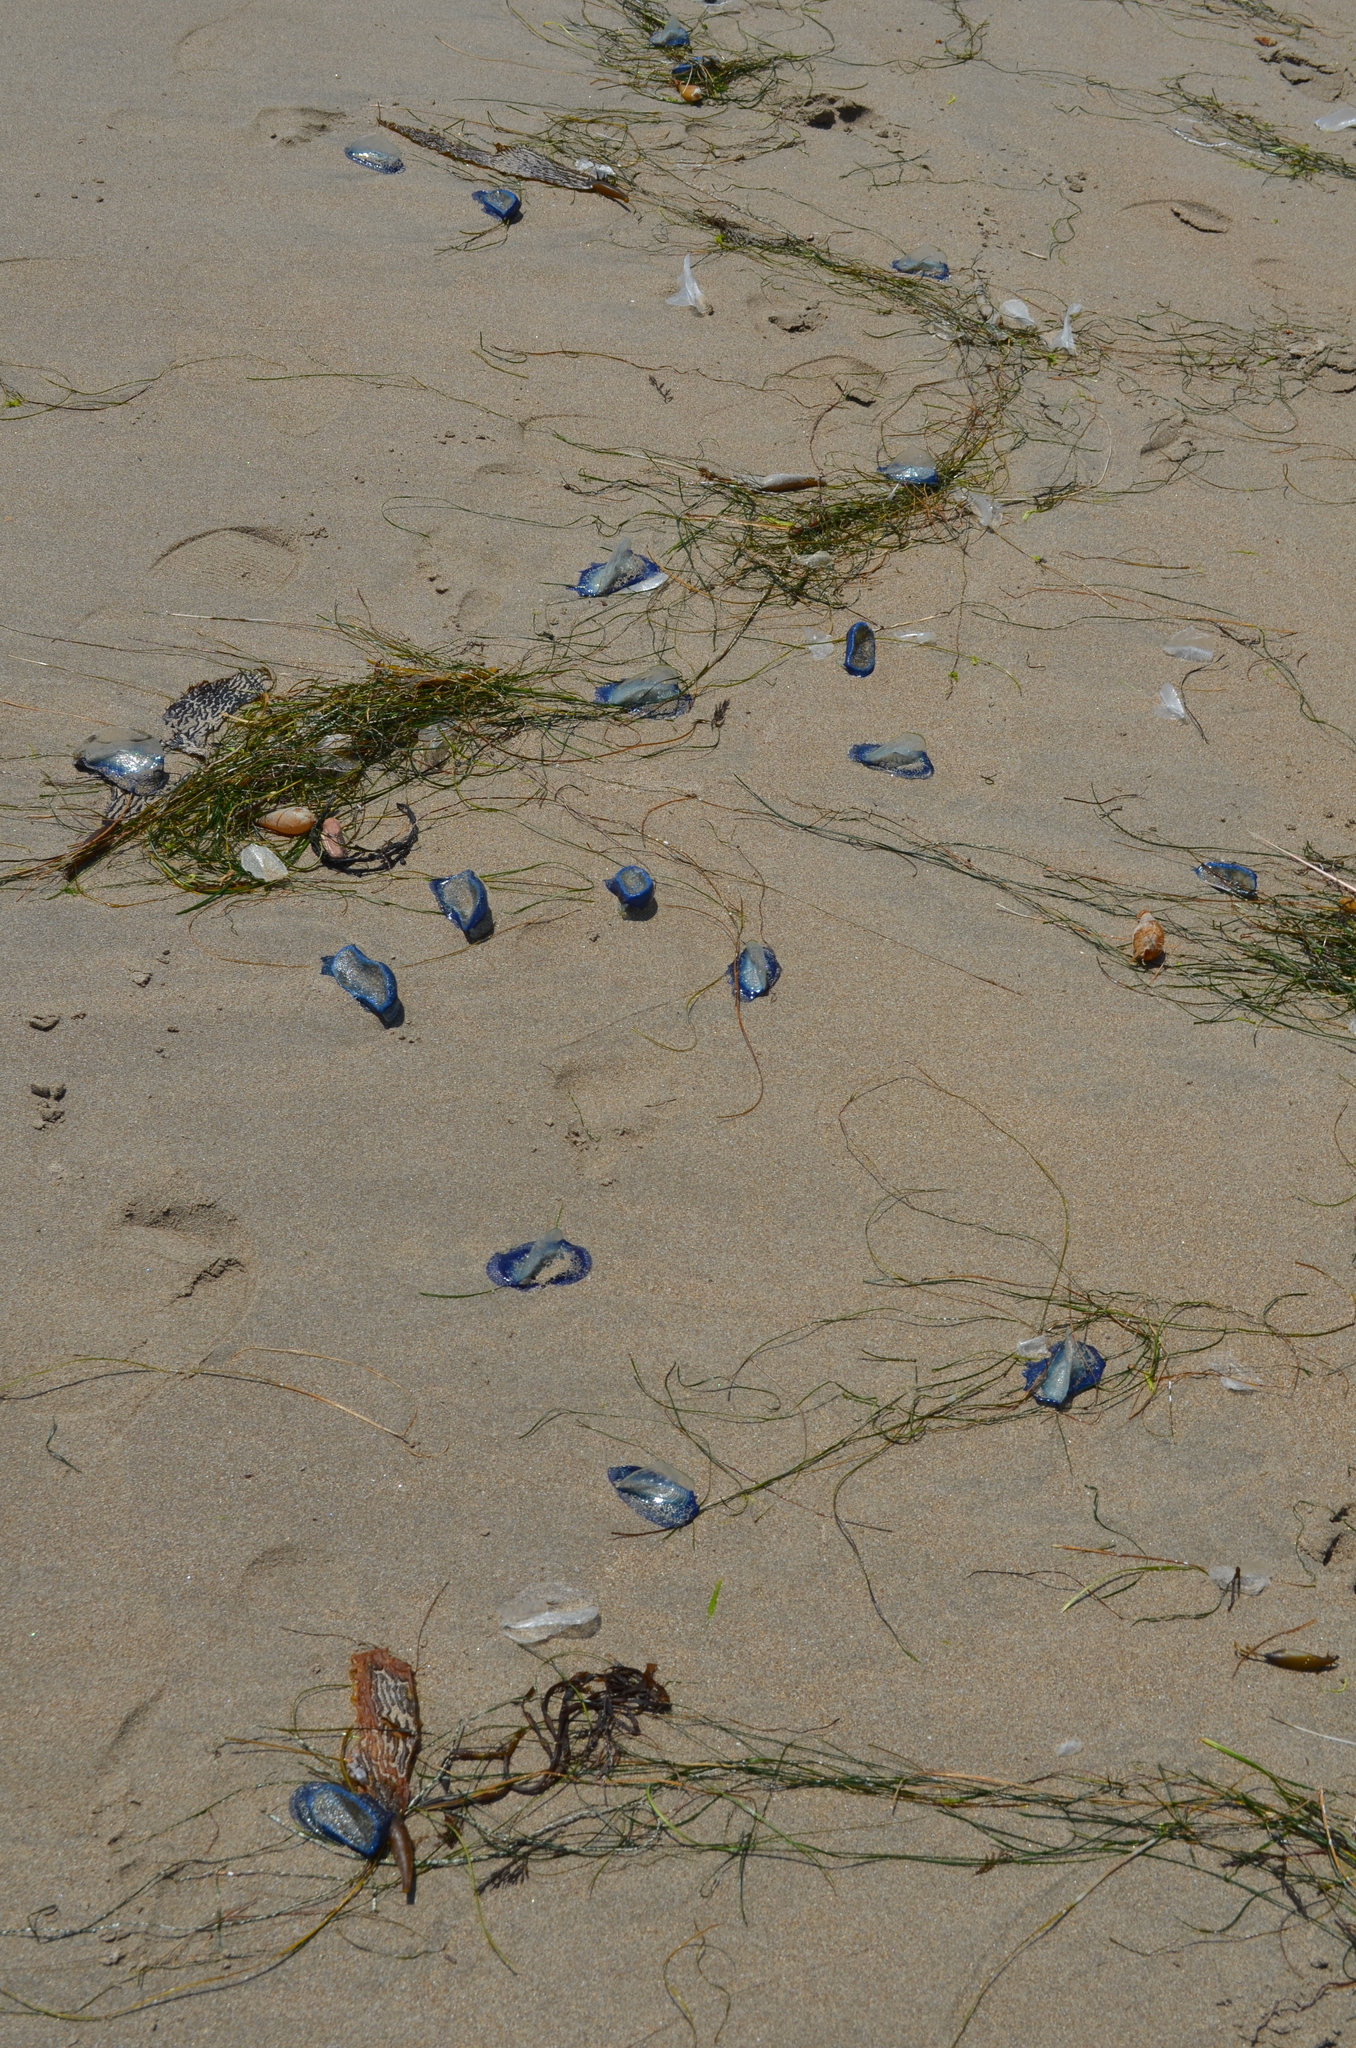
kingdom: Animalia
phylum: Cnidaria
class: Hydrozoa
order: Anthoathecata
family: Porpitidae
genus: Velella
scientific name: Velella velella
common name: By-the-wind-sailor
